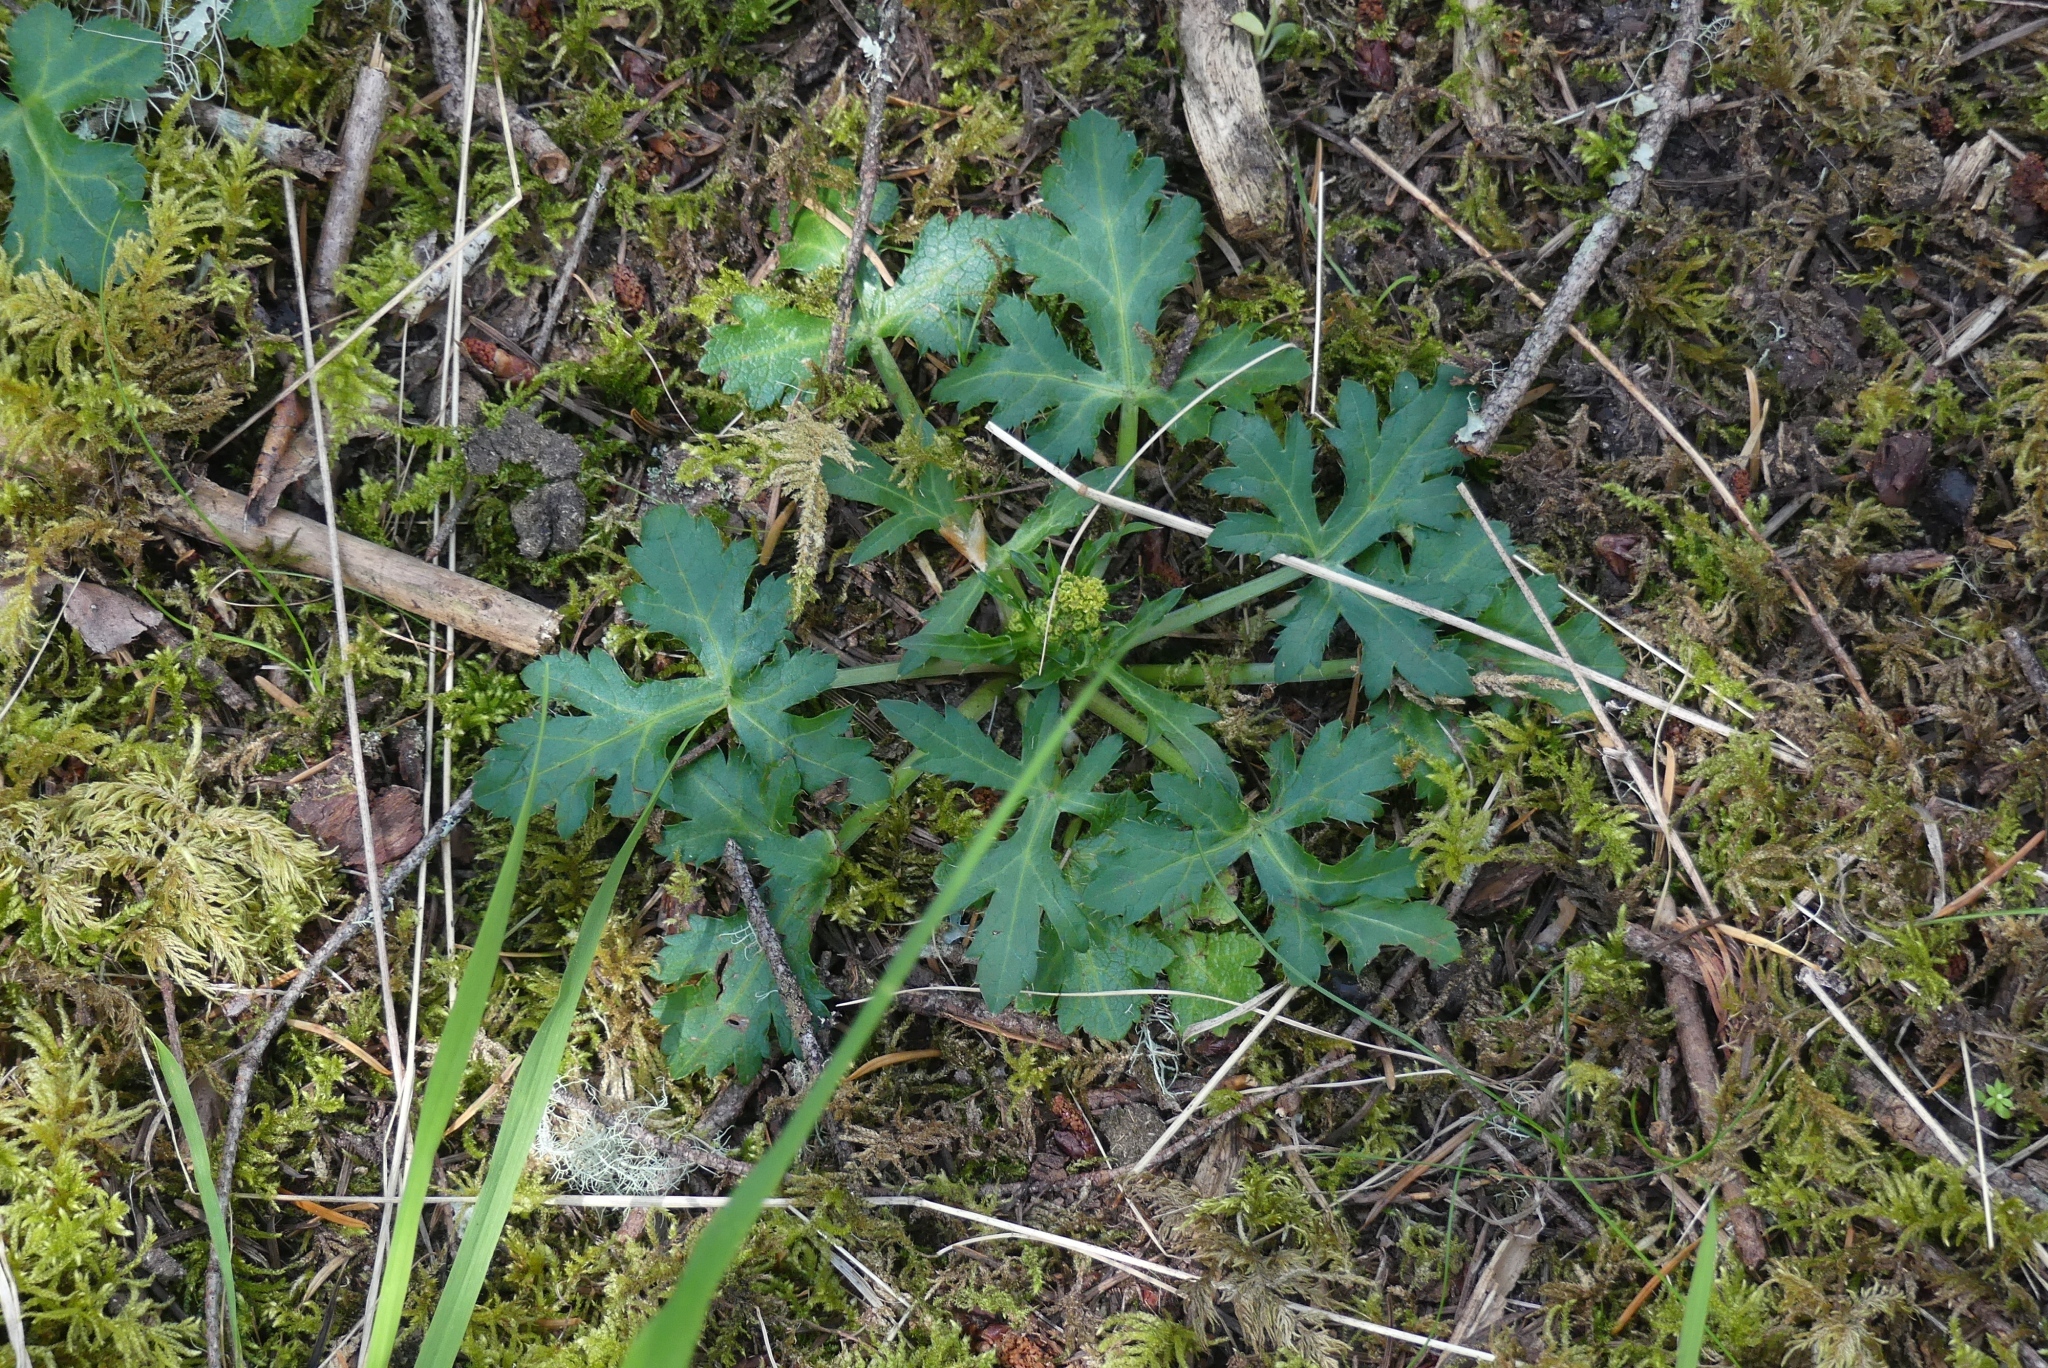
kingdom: Plantae
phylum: Tracheophyta
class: Magnoliopsida
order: Apiales
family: Apiaceae
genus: Sanicula
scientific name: Sanicula crassicaulis
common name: Western snakeroot
